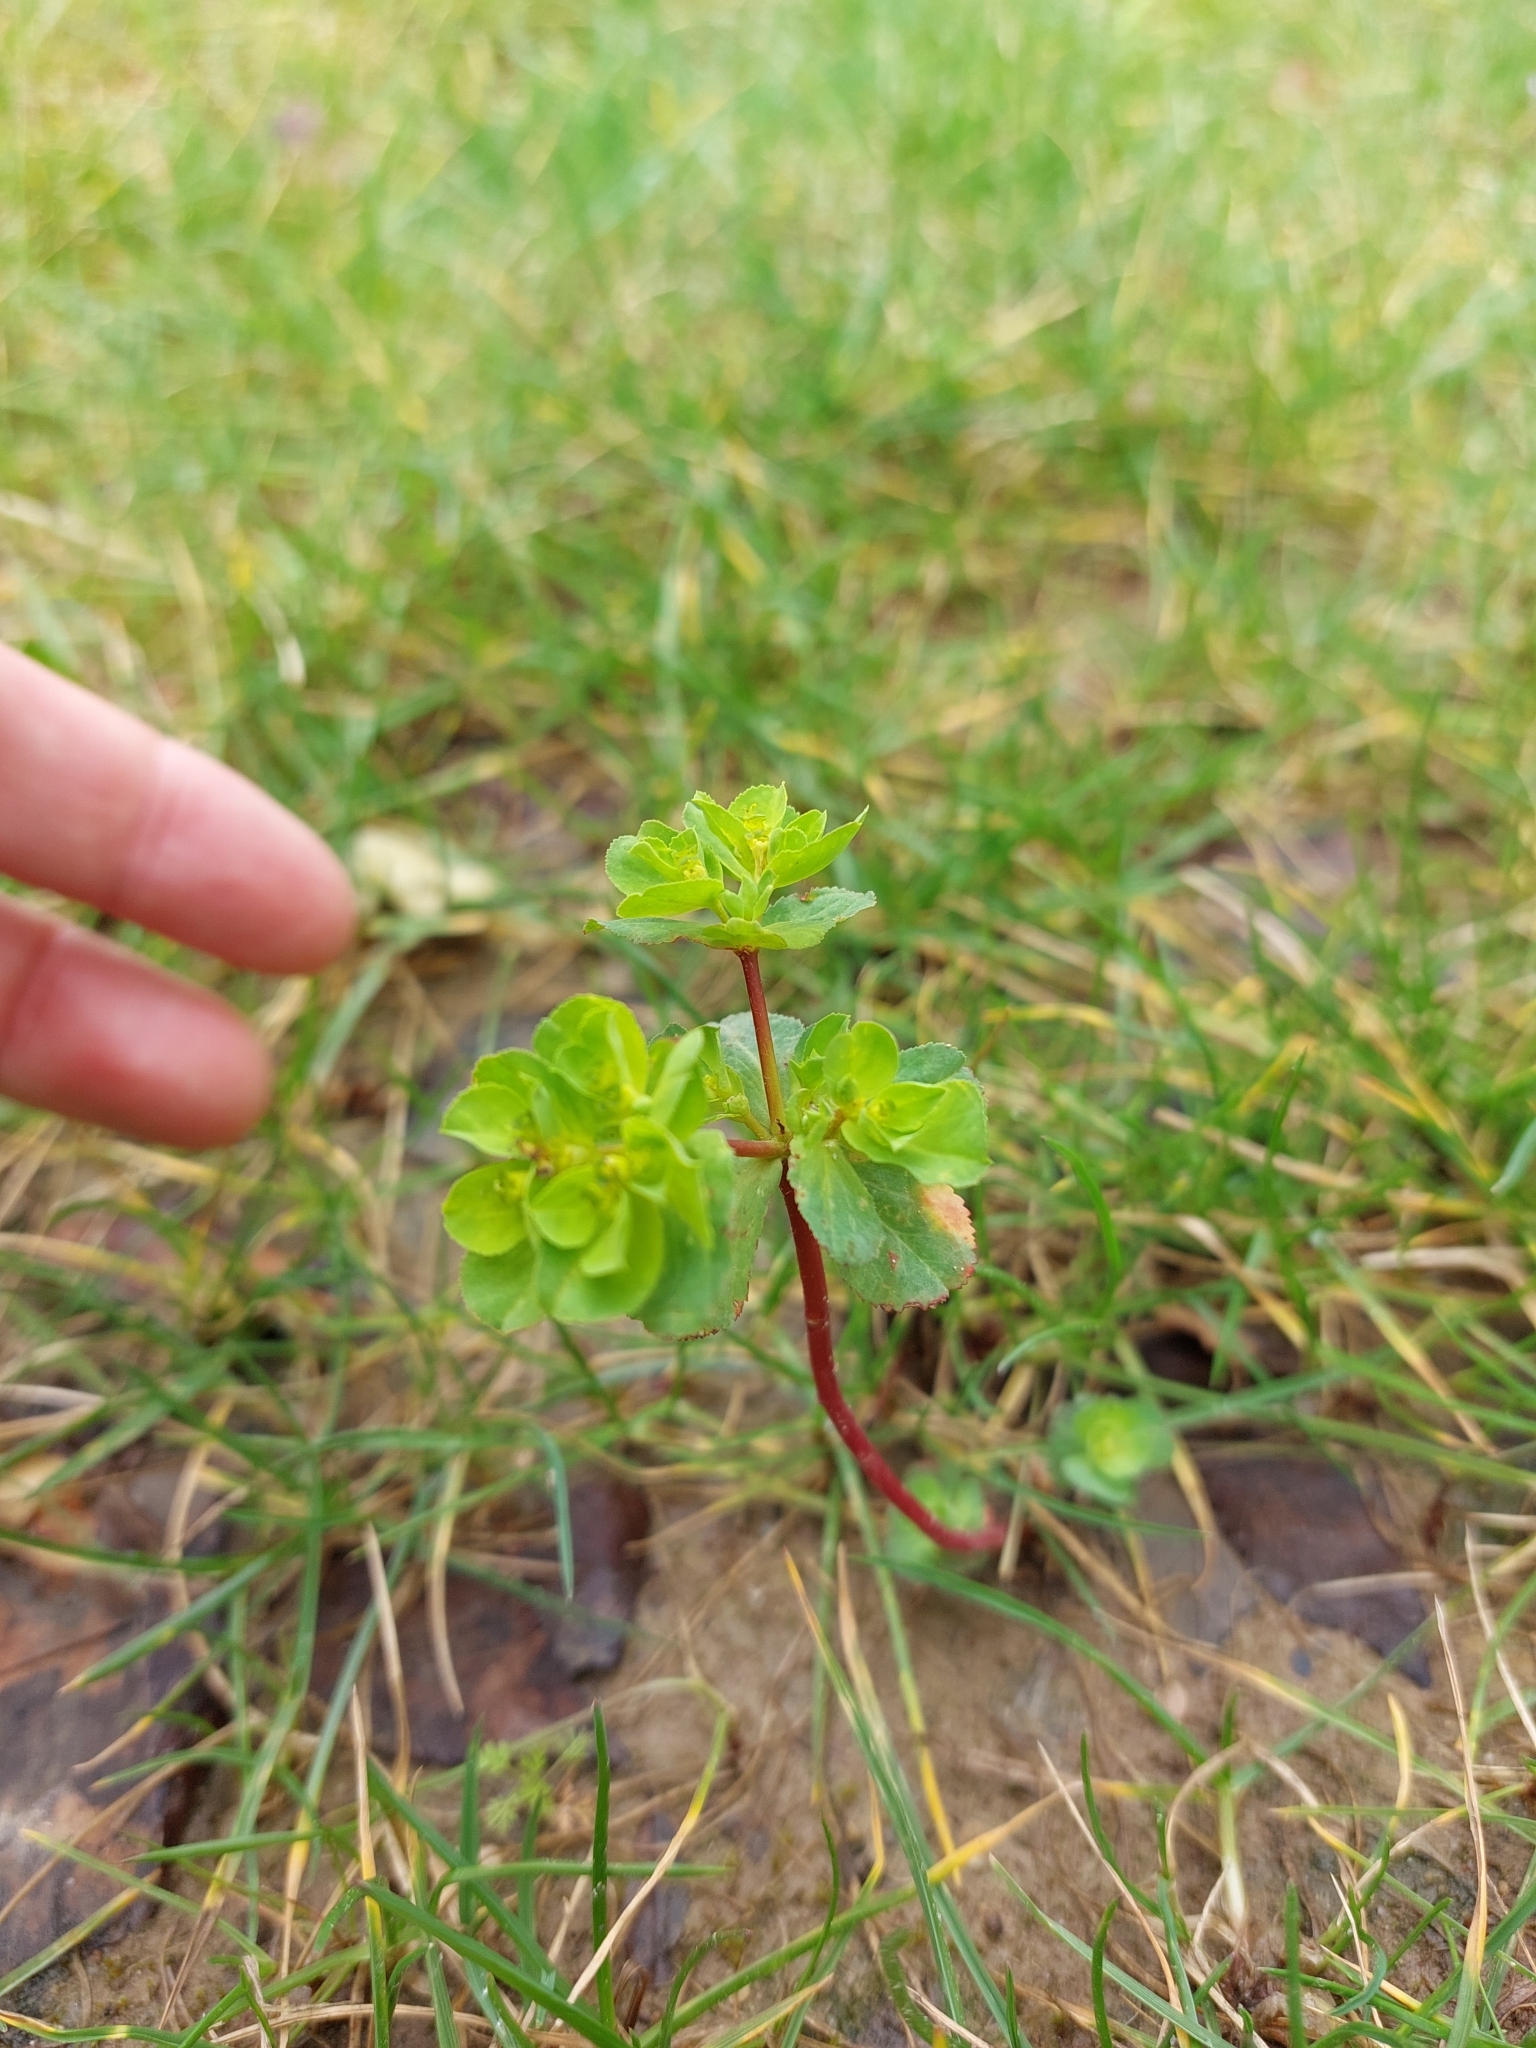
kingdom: Plantae
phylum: Tracheophyta
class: Magnoliopsida
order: Malpighiales
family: Euphorbiaceae
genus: Euphorbia
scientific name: Euphorbia helioscopia
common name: Sun spurge
